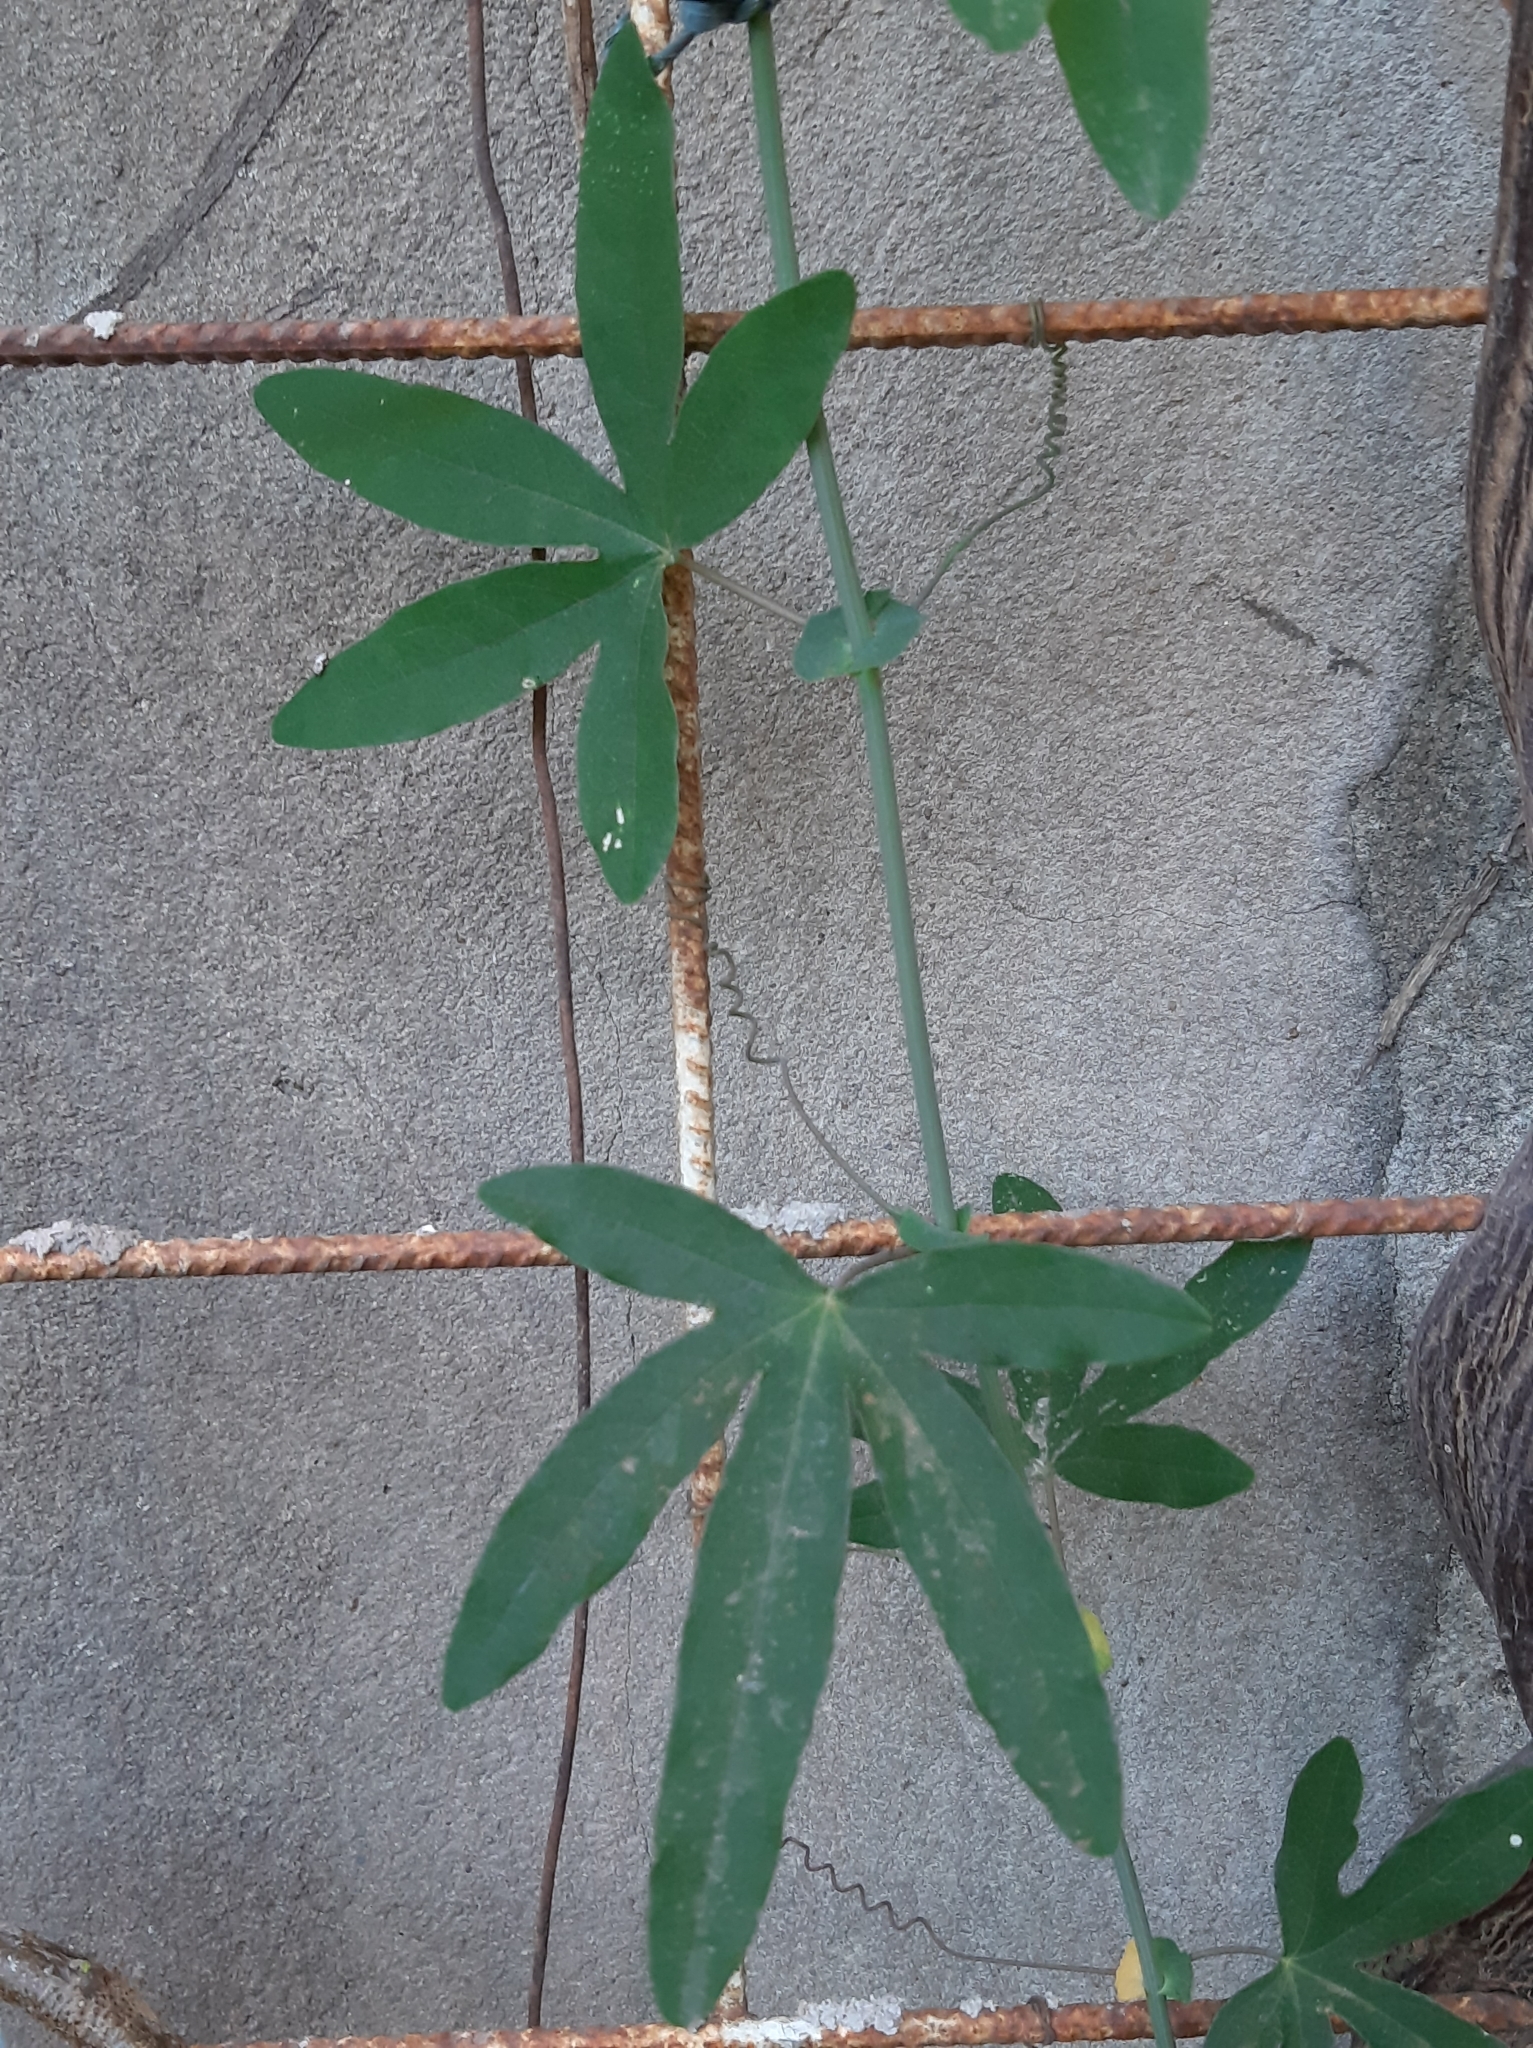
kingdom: Plantae
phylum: Tracheophyta
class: Magnoliopsida
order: Malpighiales
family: Passifloraceae
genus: Passiflora
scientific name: Passiflora caerulea
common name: Blue passionflower
